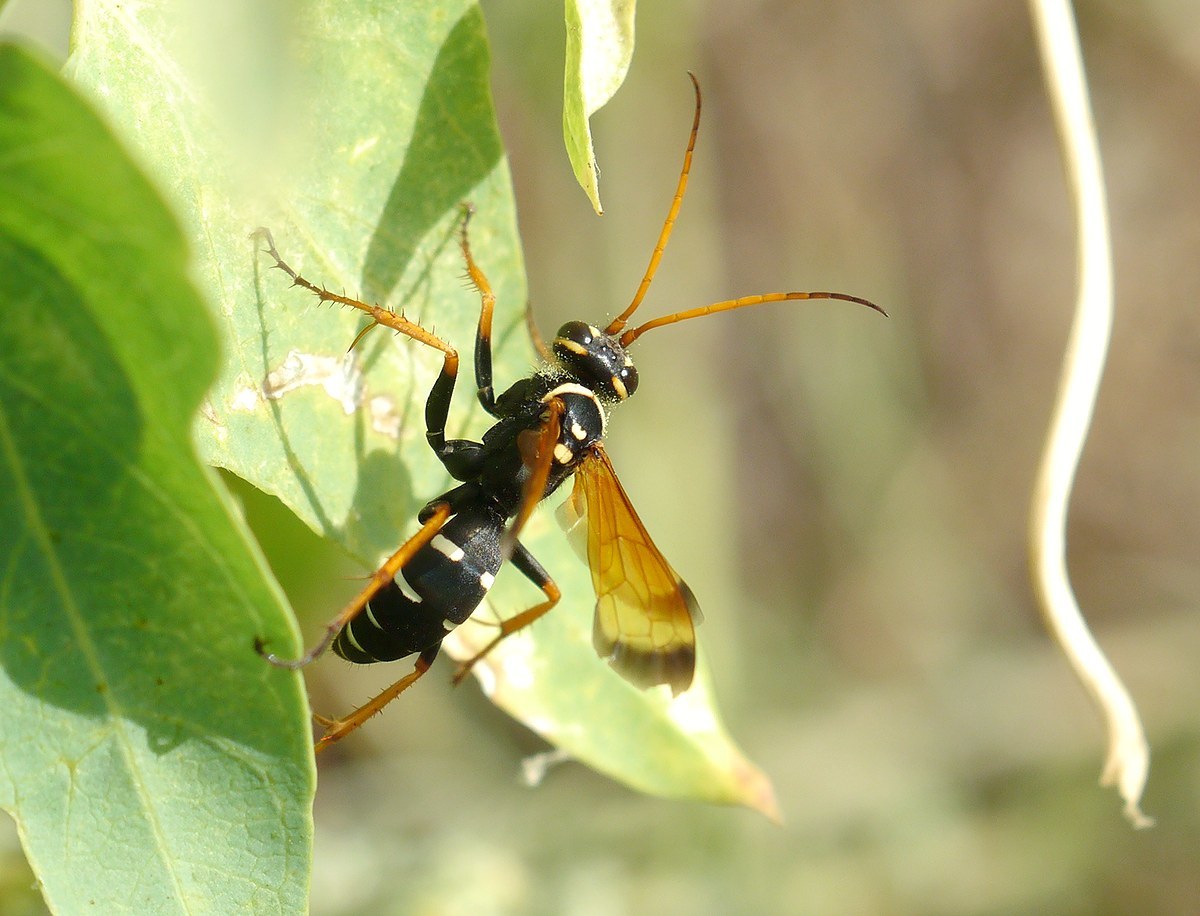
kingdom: Animalia
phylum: Arthropoda
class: Insecta
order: Hymenoptera
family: Pompilidae
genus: Parabatozonus
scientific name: Parabatozonus lacerticida
